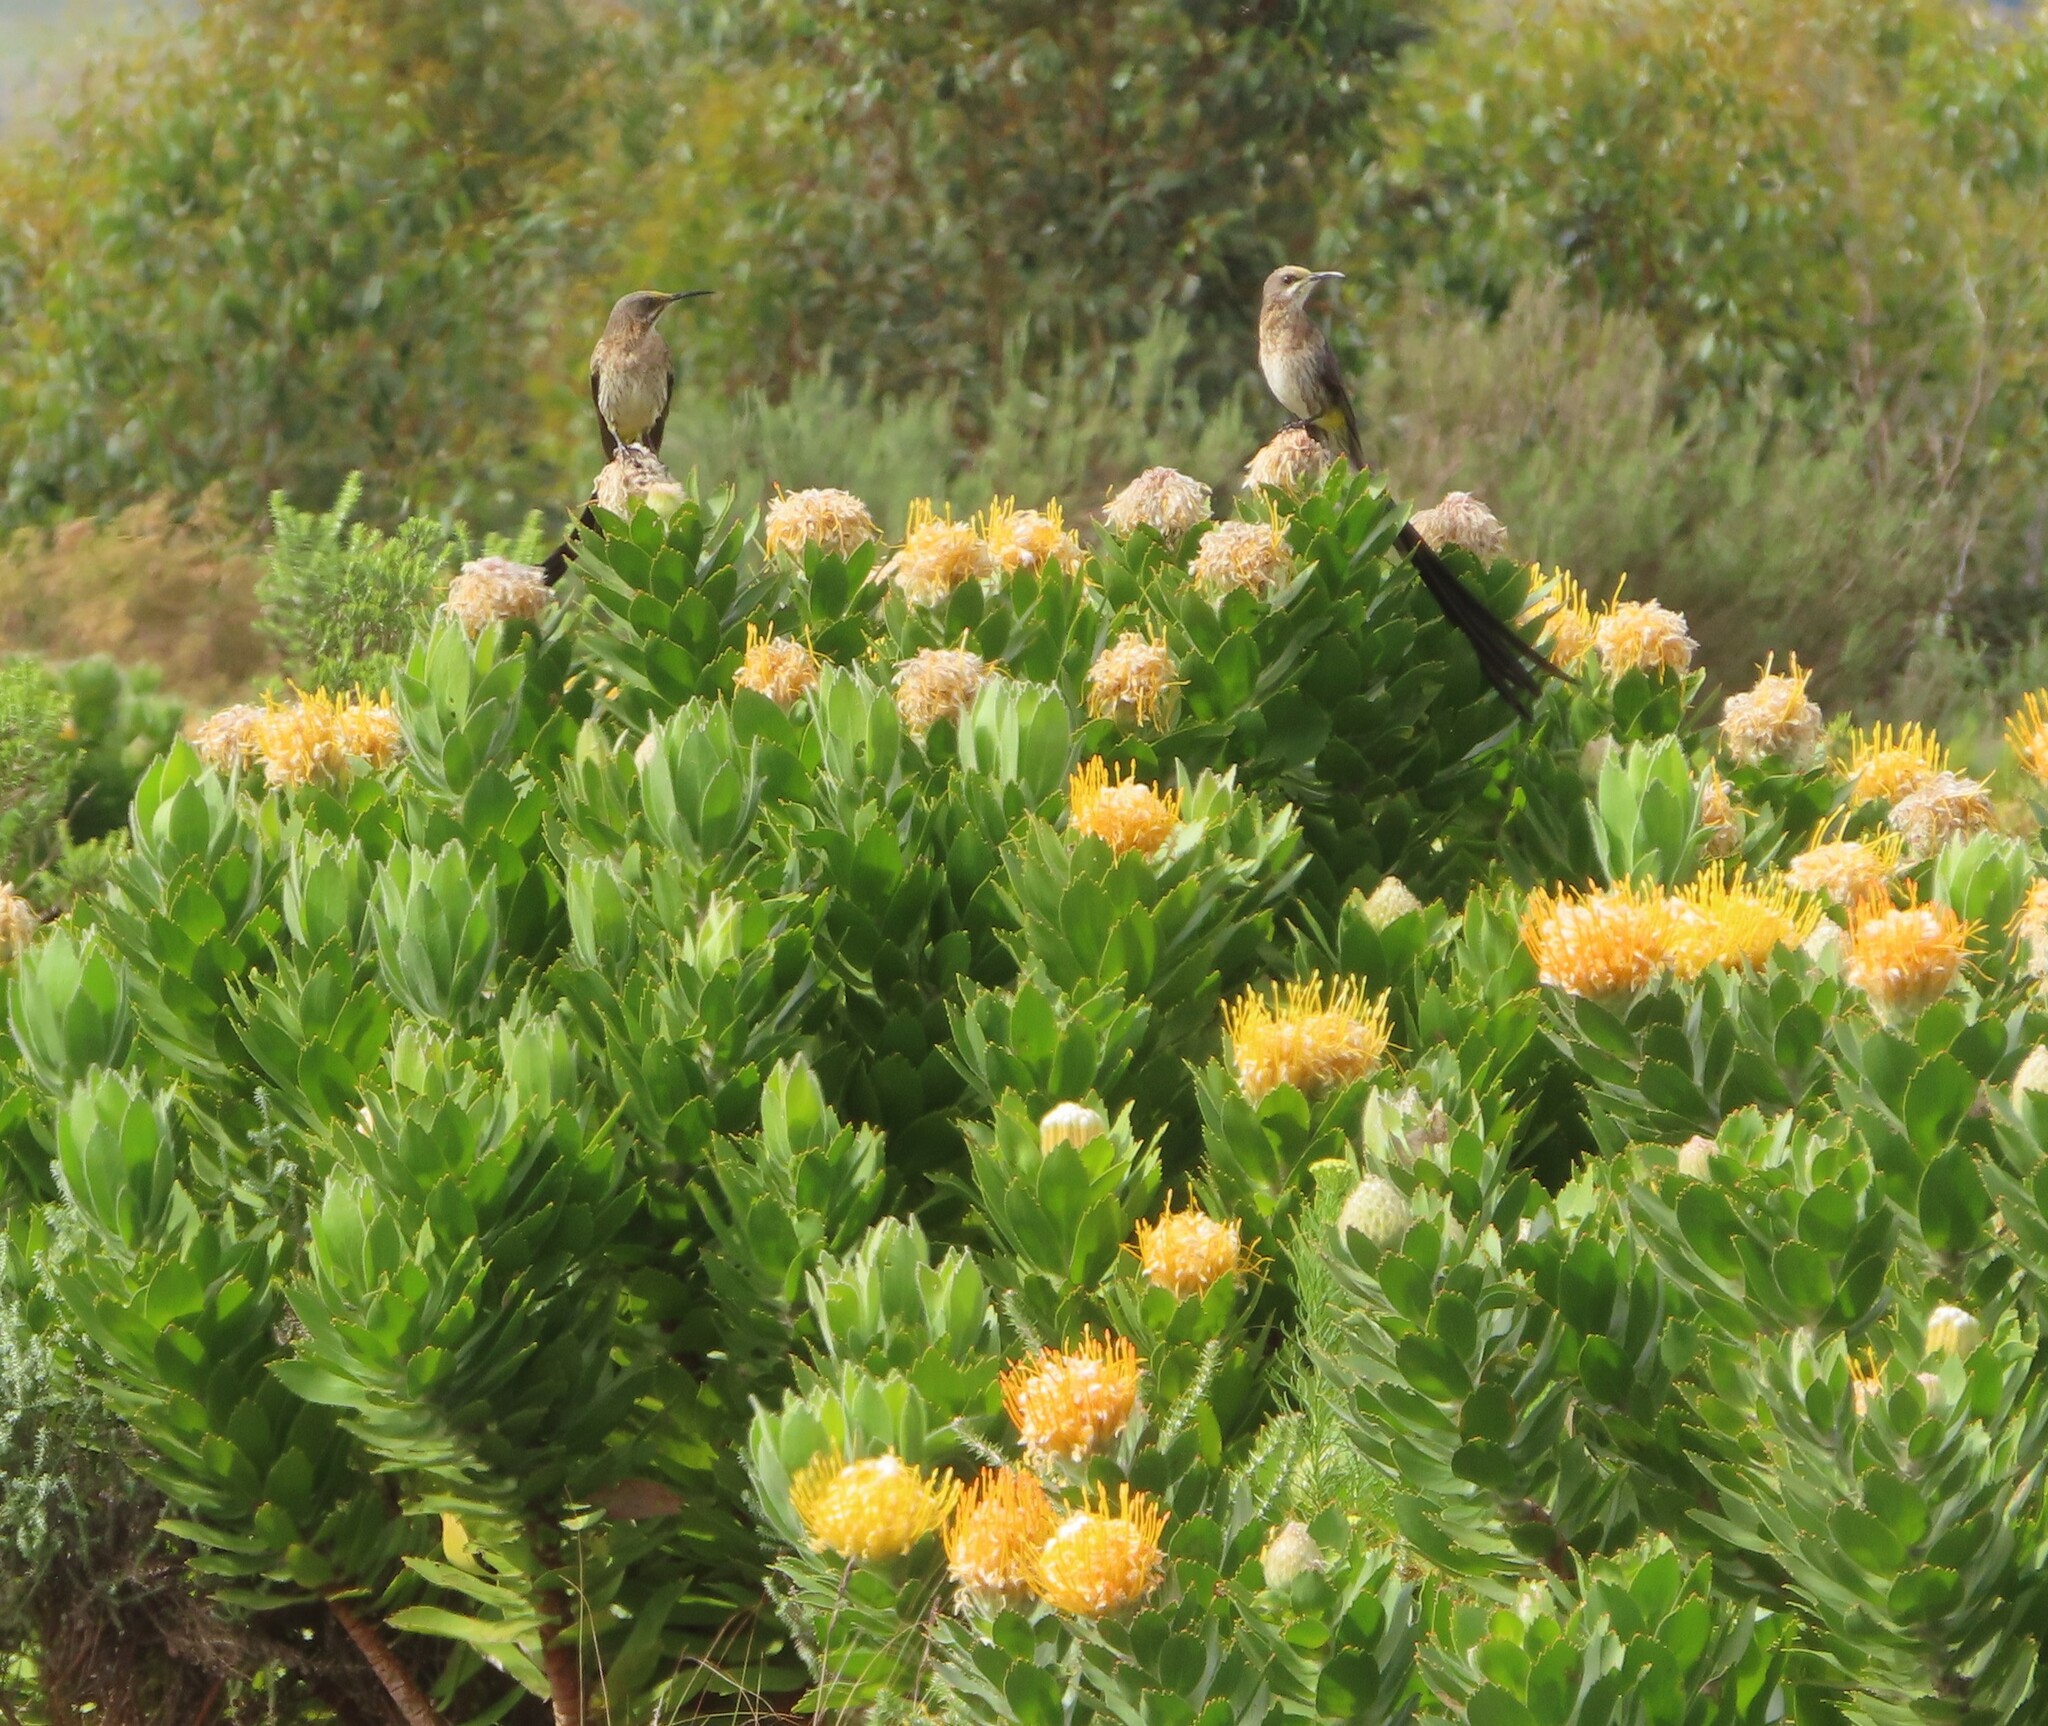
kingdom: Plantae
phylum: Tracheophyta
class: Magnoliopsida
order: Proteales
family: Proteaceae
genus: Leucospermum
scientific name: Leucospermum conocarpodendron
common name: Tree pincushion
